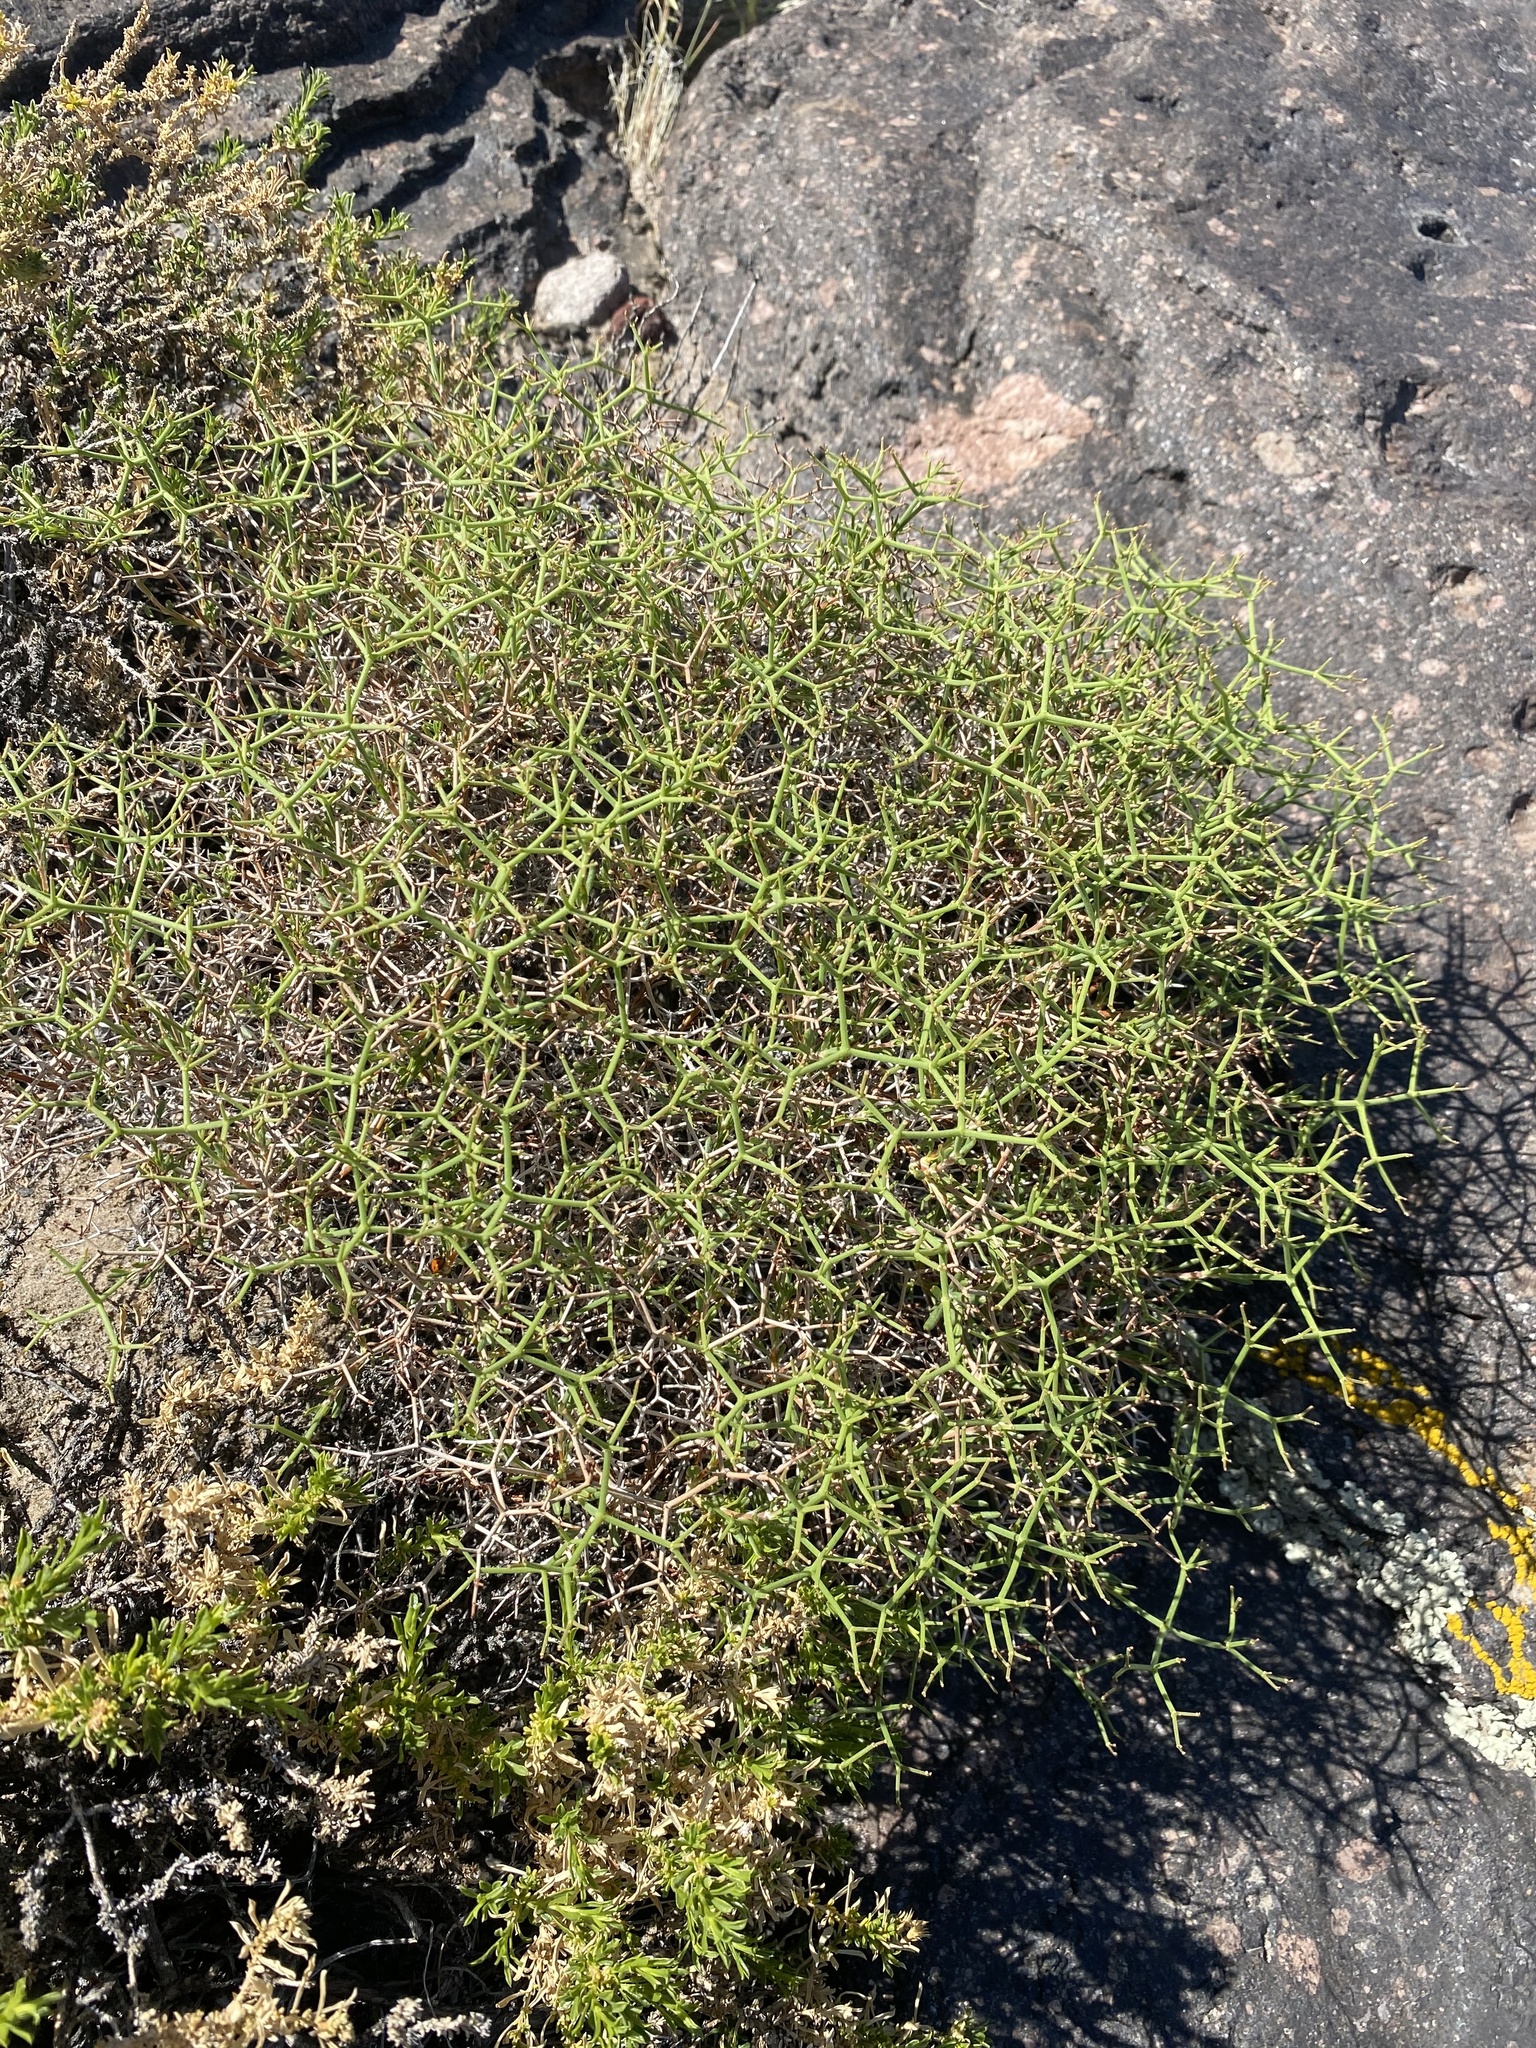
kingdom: Plantae
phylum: Tracheophyta
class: Magnoliopsida
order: Caryophyllales
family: Polygonaceae
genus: Eriogonum
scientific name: Eriogonum heermannii
